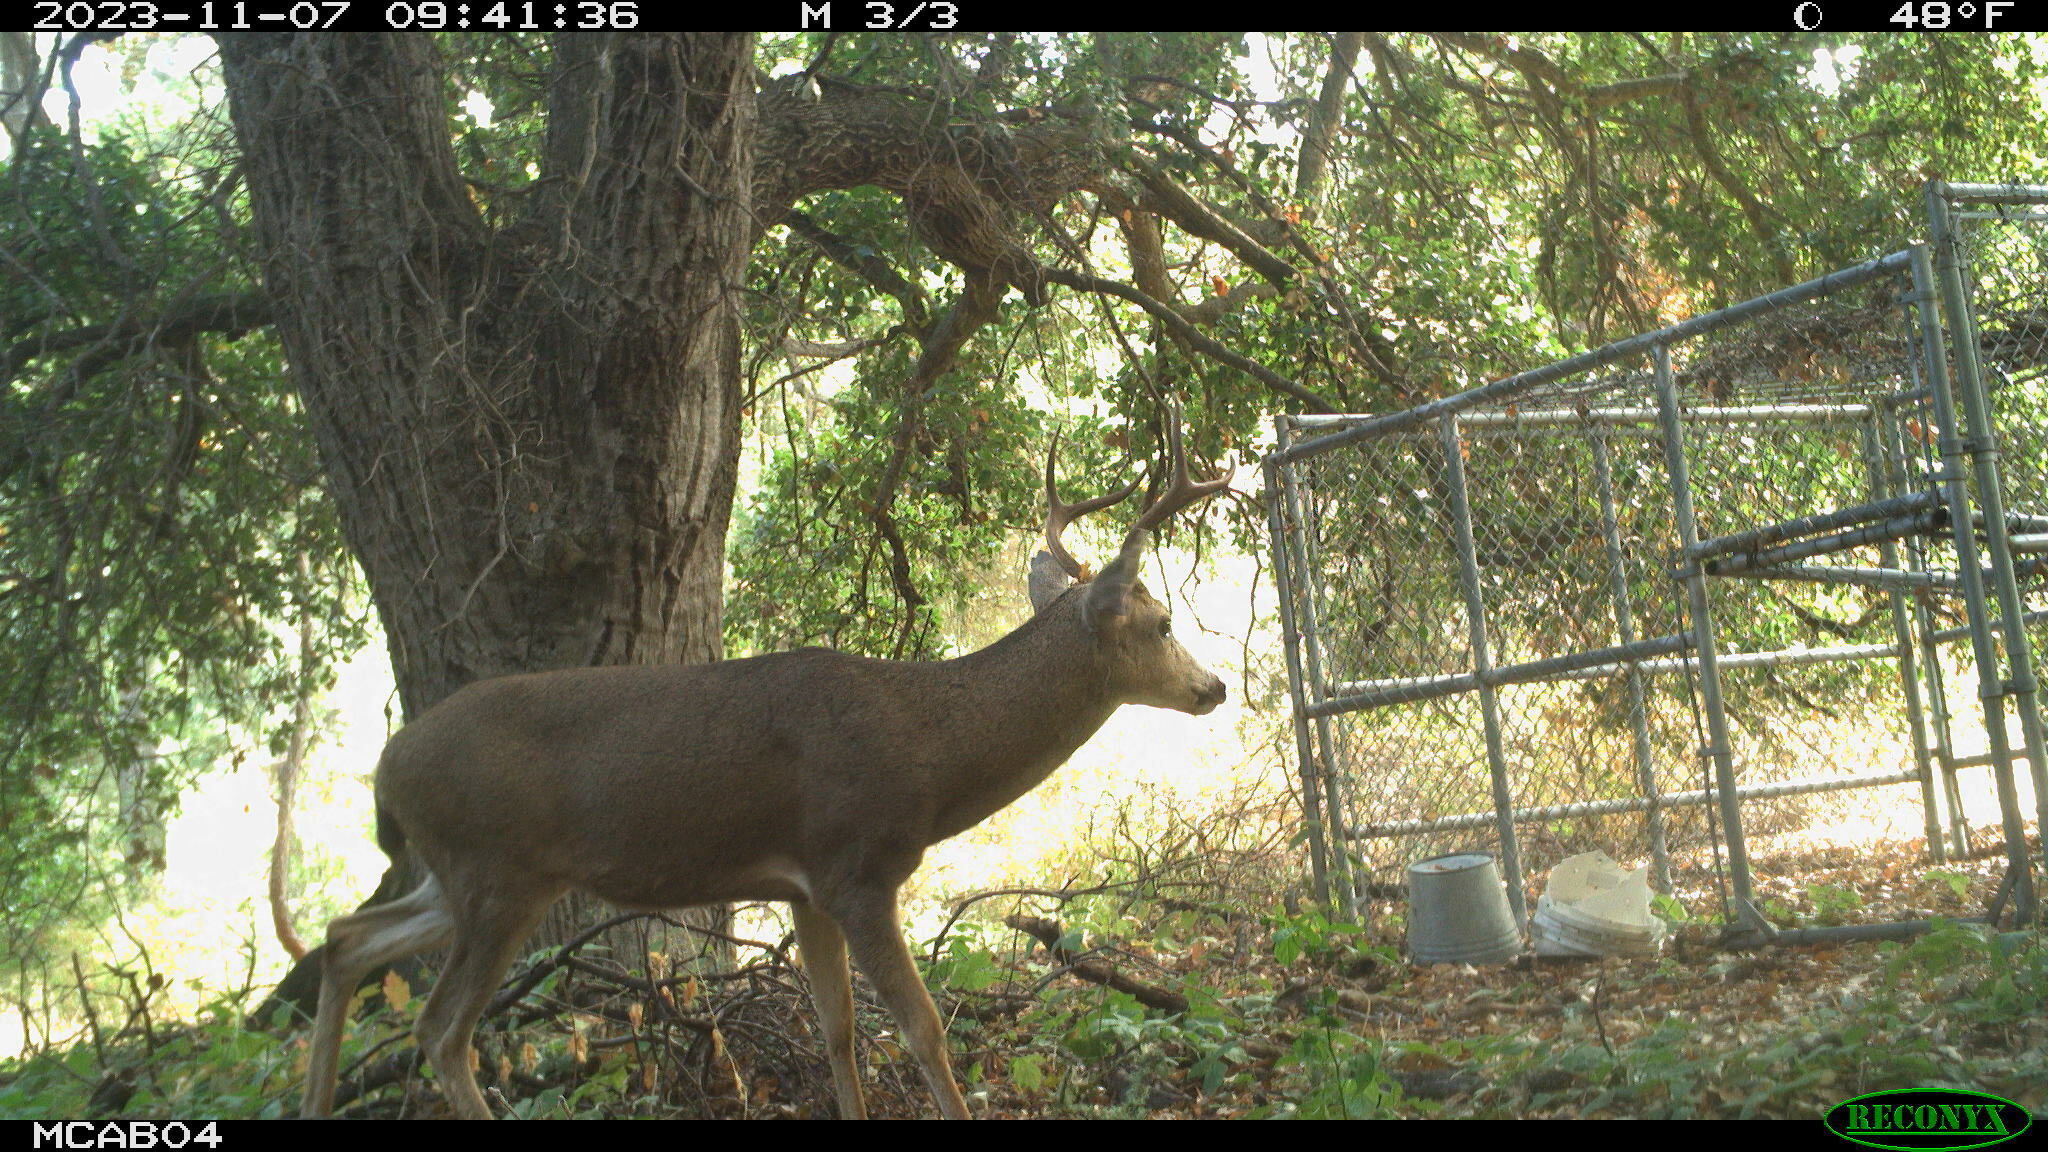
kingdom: Animalia
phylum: Chordata
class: Mammalia
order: Artiodactyla
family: Cervidae
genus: Odocoileus
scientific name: Odocoileus hemionus
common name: Mule deer
